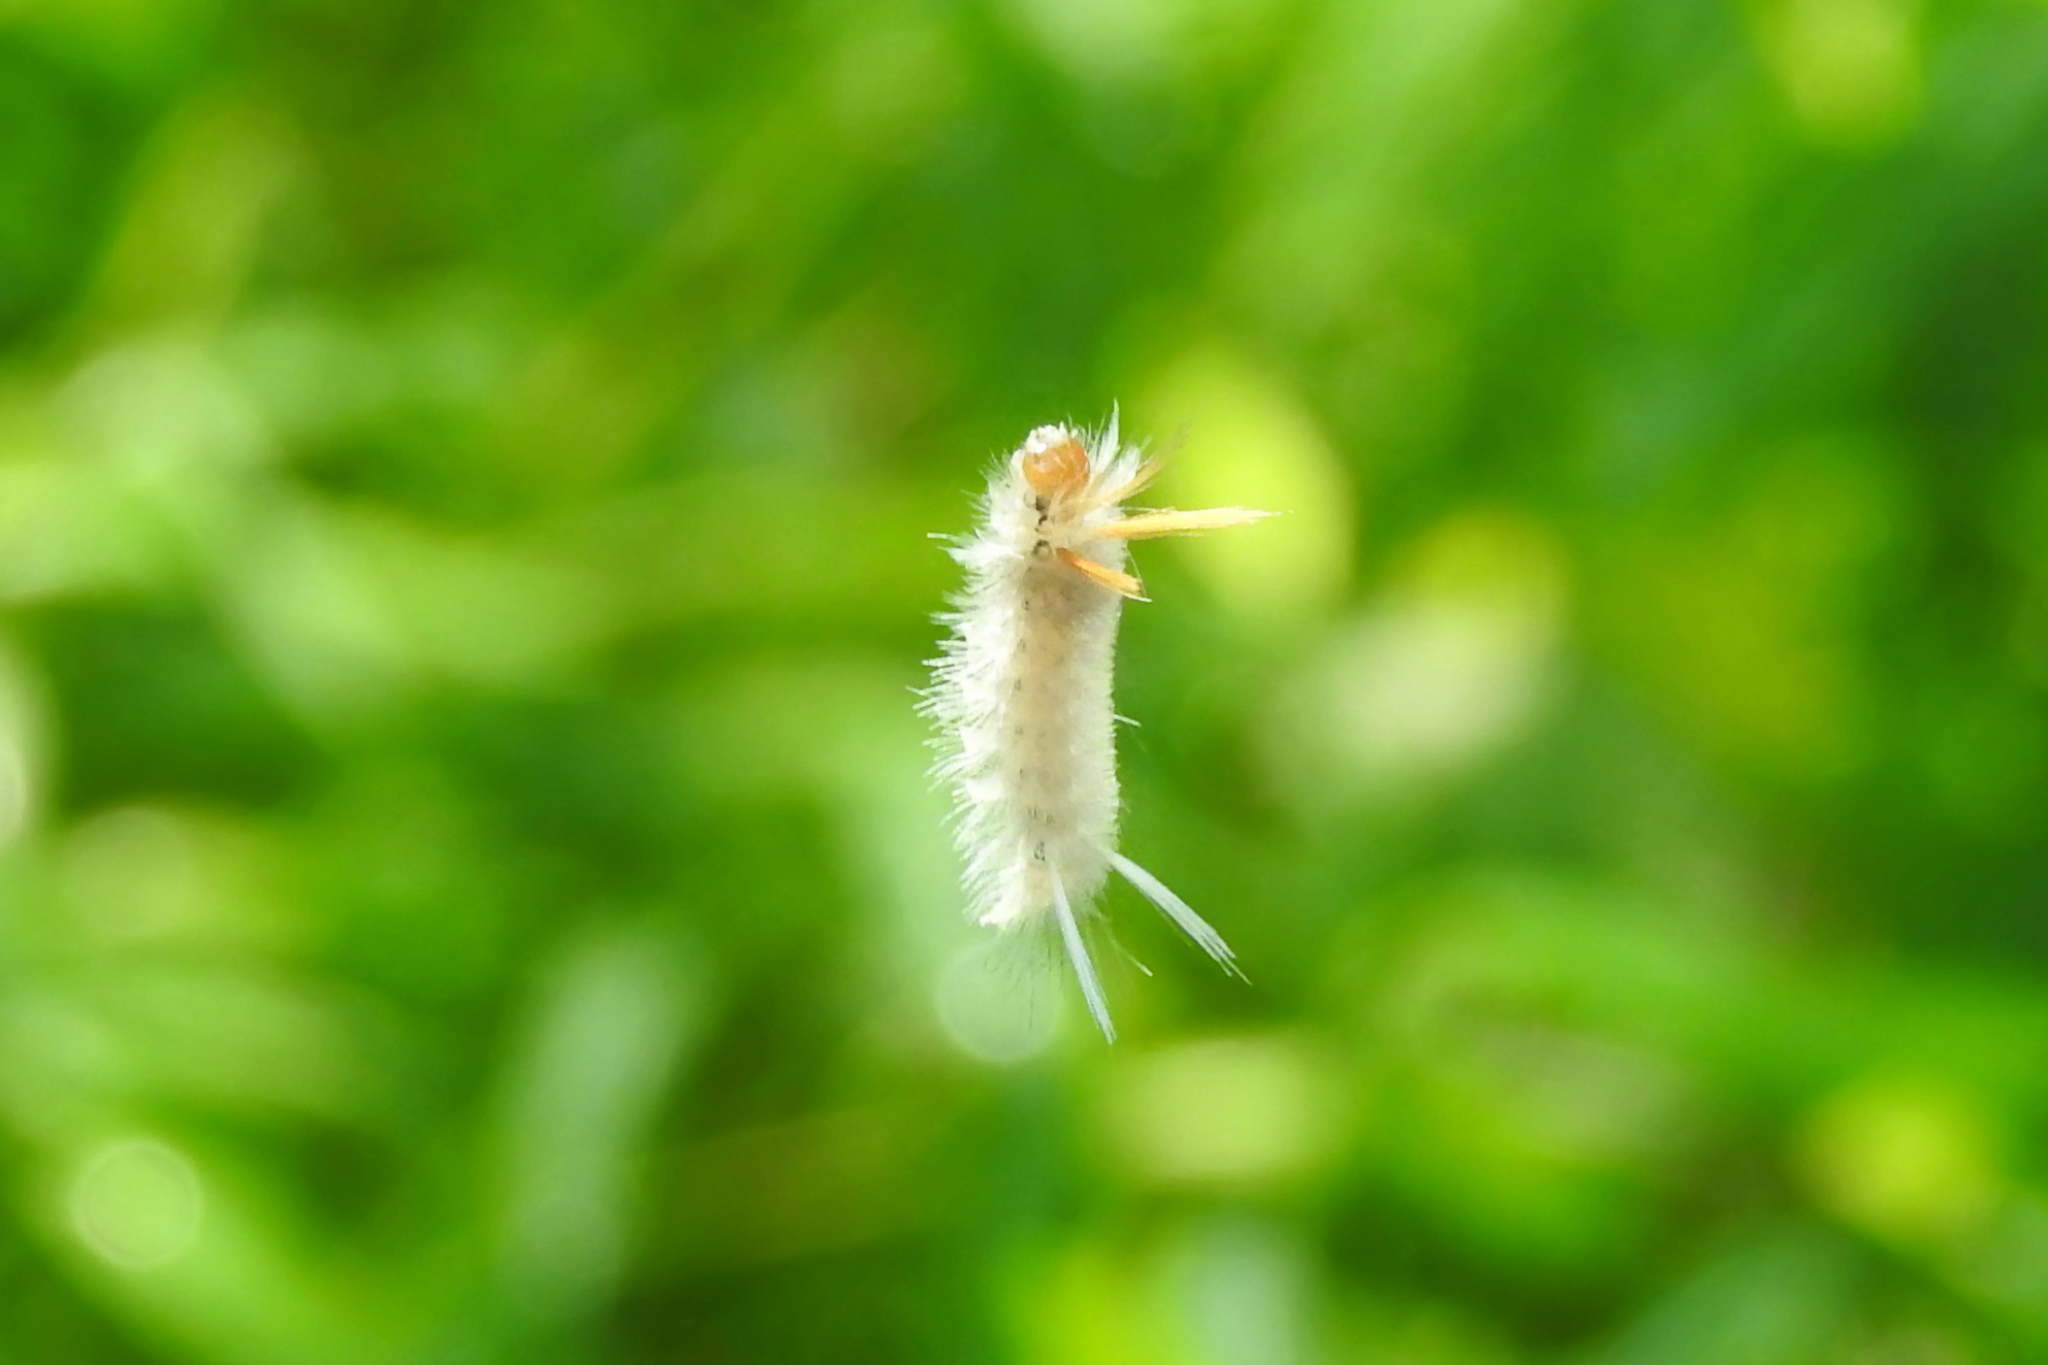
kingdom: Animalia
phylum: Arthropoda
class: Insecta
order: Lepidoptera
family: Erebidae
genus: Halysidota
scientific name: Halysidota harrisii
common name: Sycamore tussock moth
